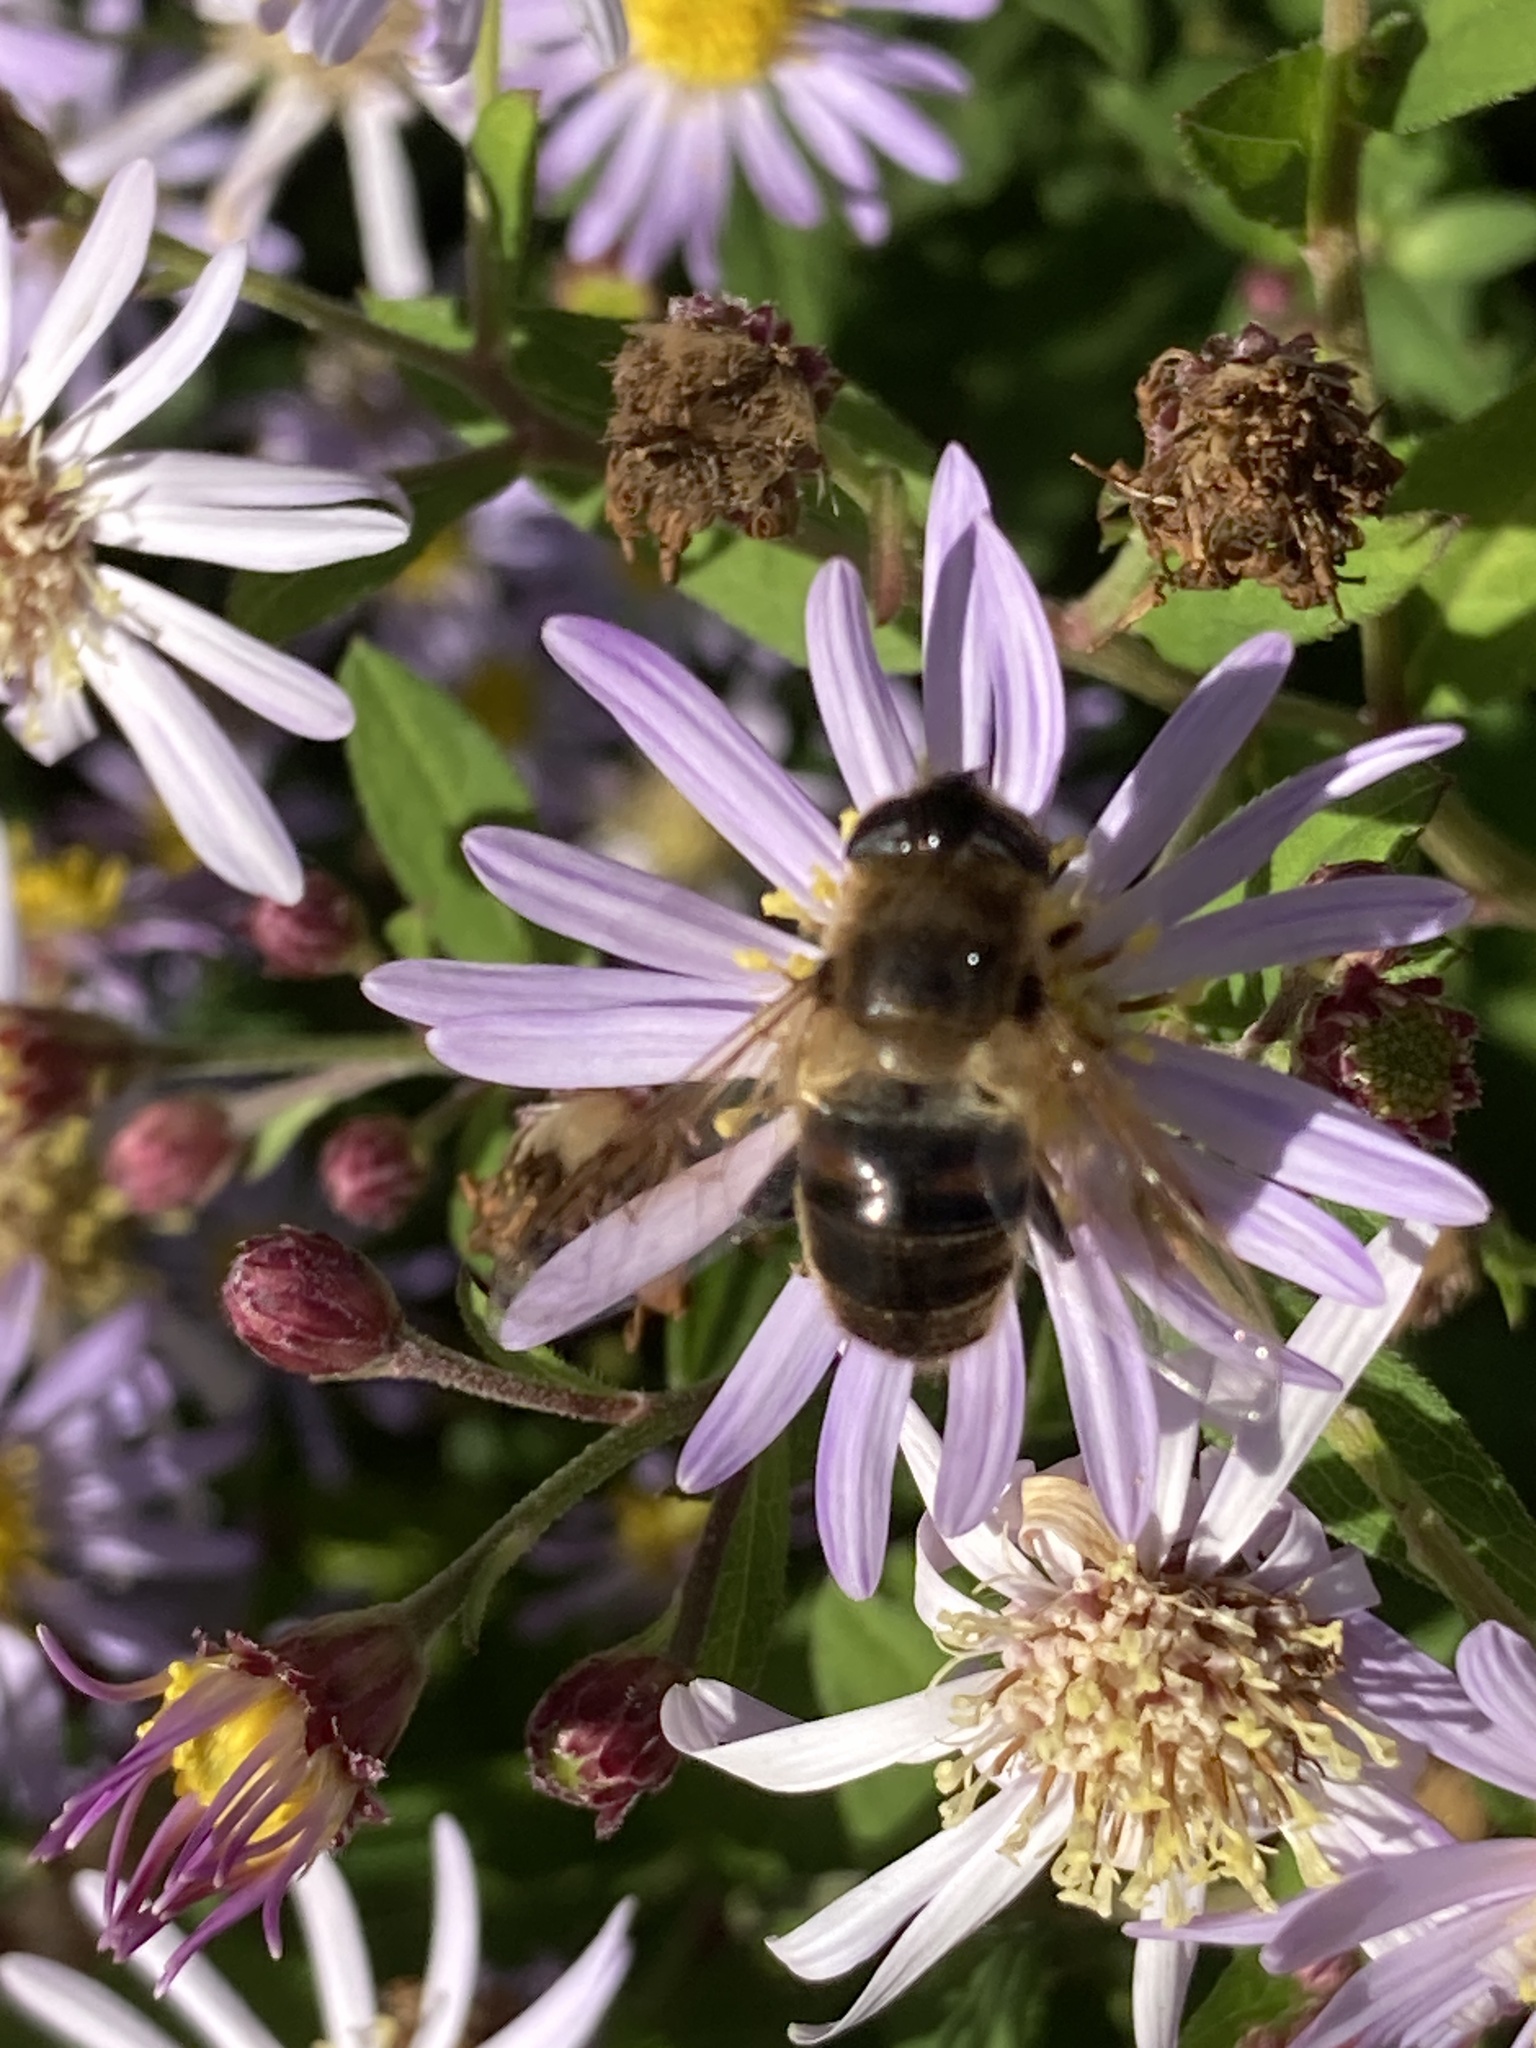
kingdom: Animalia
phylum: Arthropoda
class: Insecta
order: Diptera
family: Syrphidae
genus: Eristalis
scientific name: Eristalis tenax
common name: Drone fly
